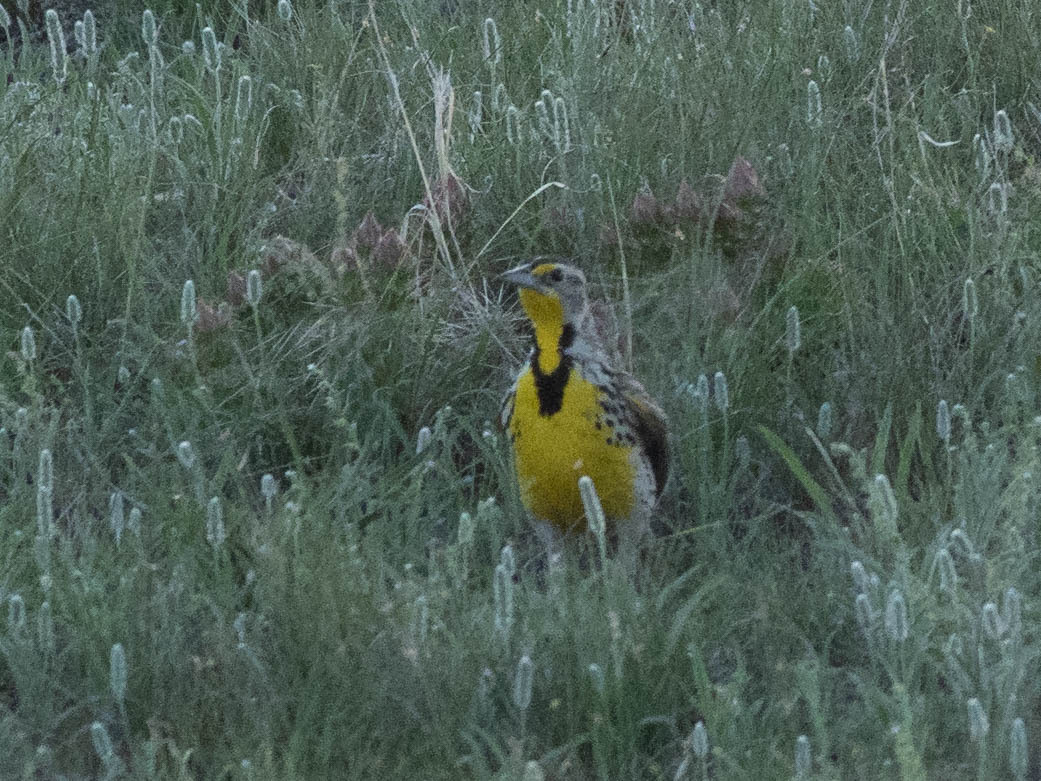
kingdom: Animalia
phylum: Chordata
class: Aves
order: Passeriformes
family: Icteridae
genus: Sturnella
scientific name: Sturnella neglecta
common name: Western meadowlark
